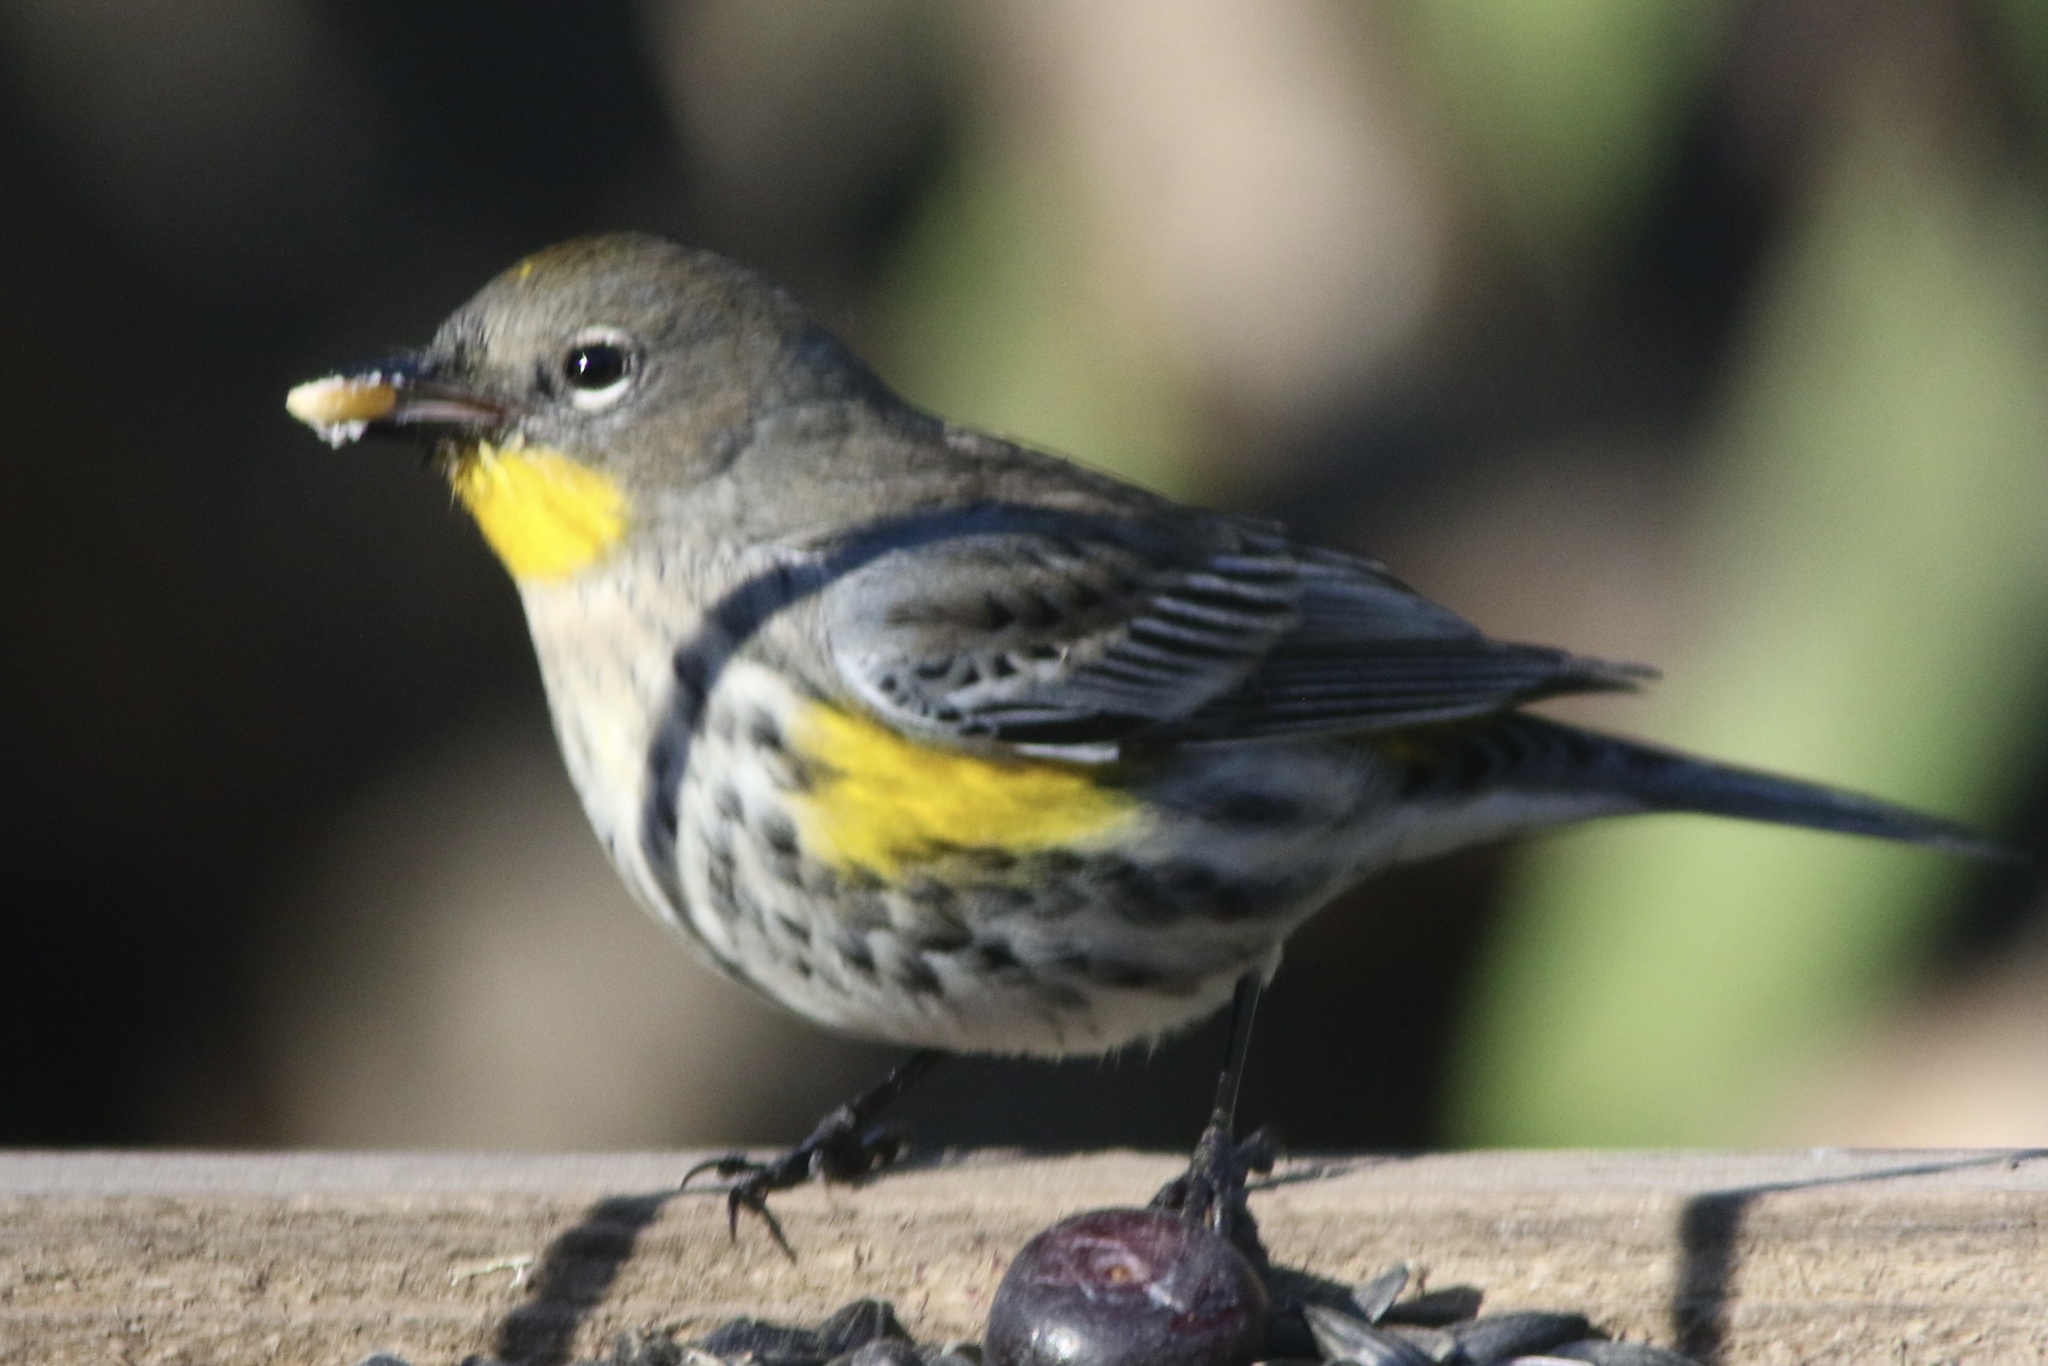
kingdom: Animalia
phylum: Chordata
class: Aves
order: Passeriformes
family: Parulidae
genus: Setophaga
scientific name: Setophaga coronata
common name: Myrtle warbler
